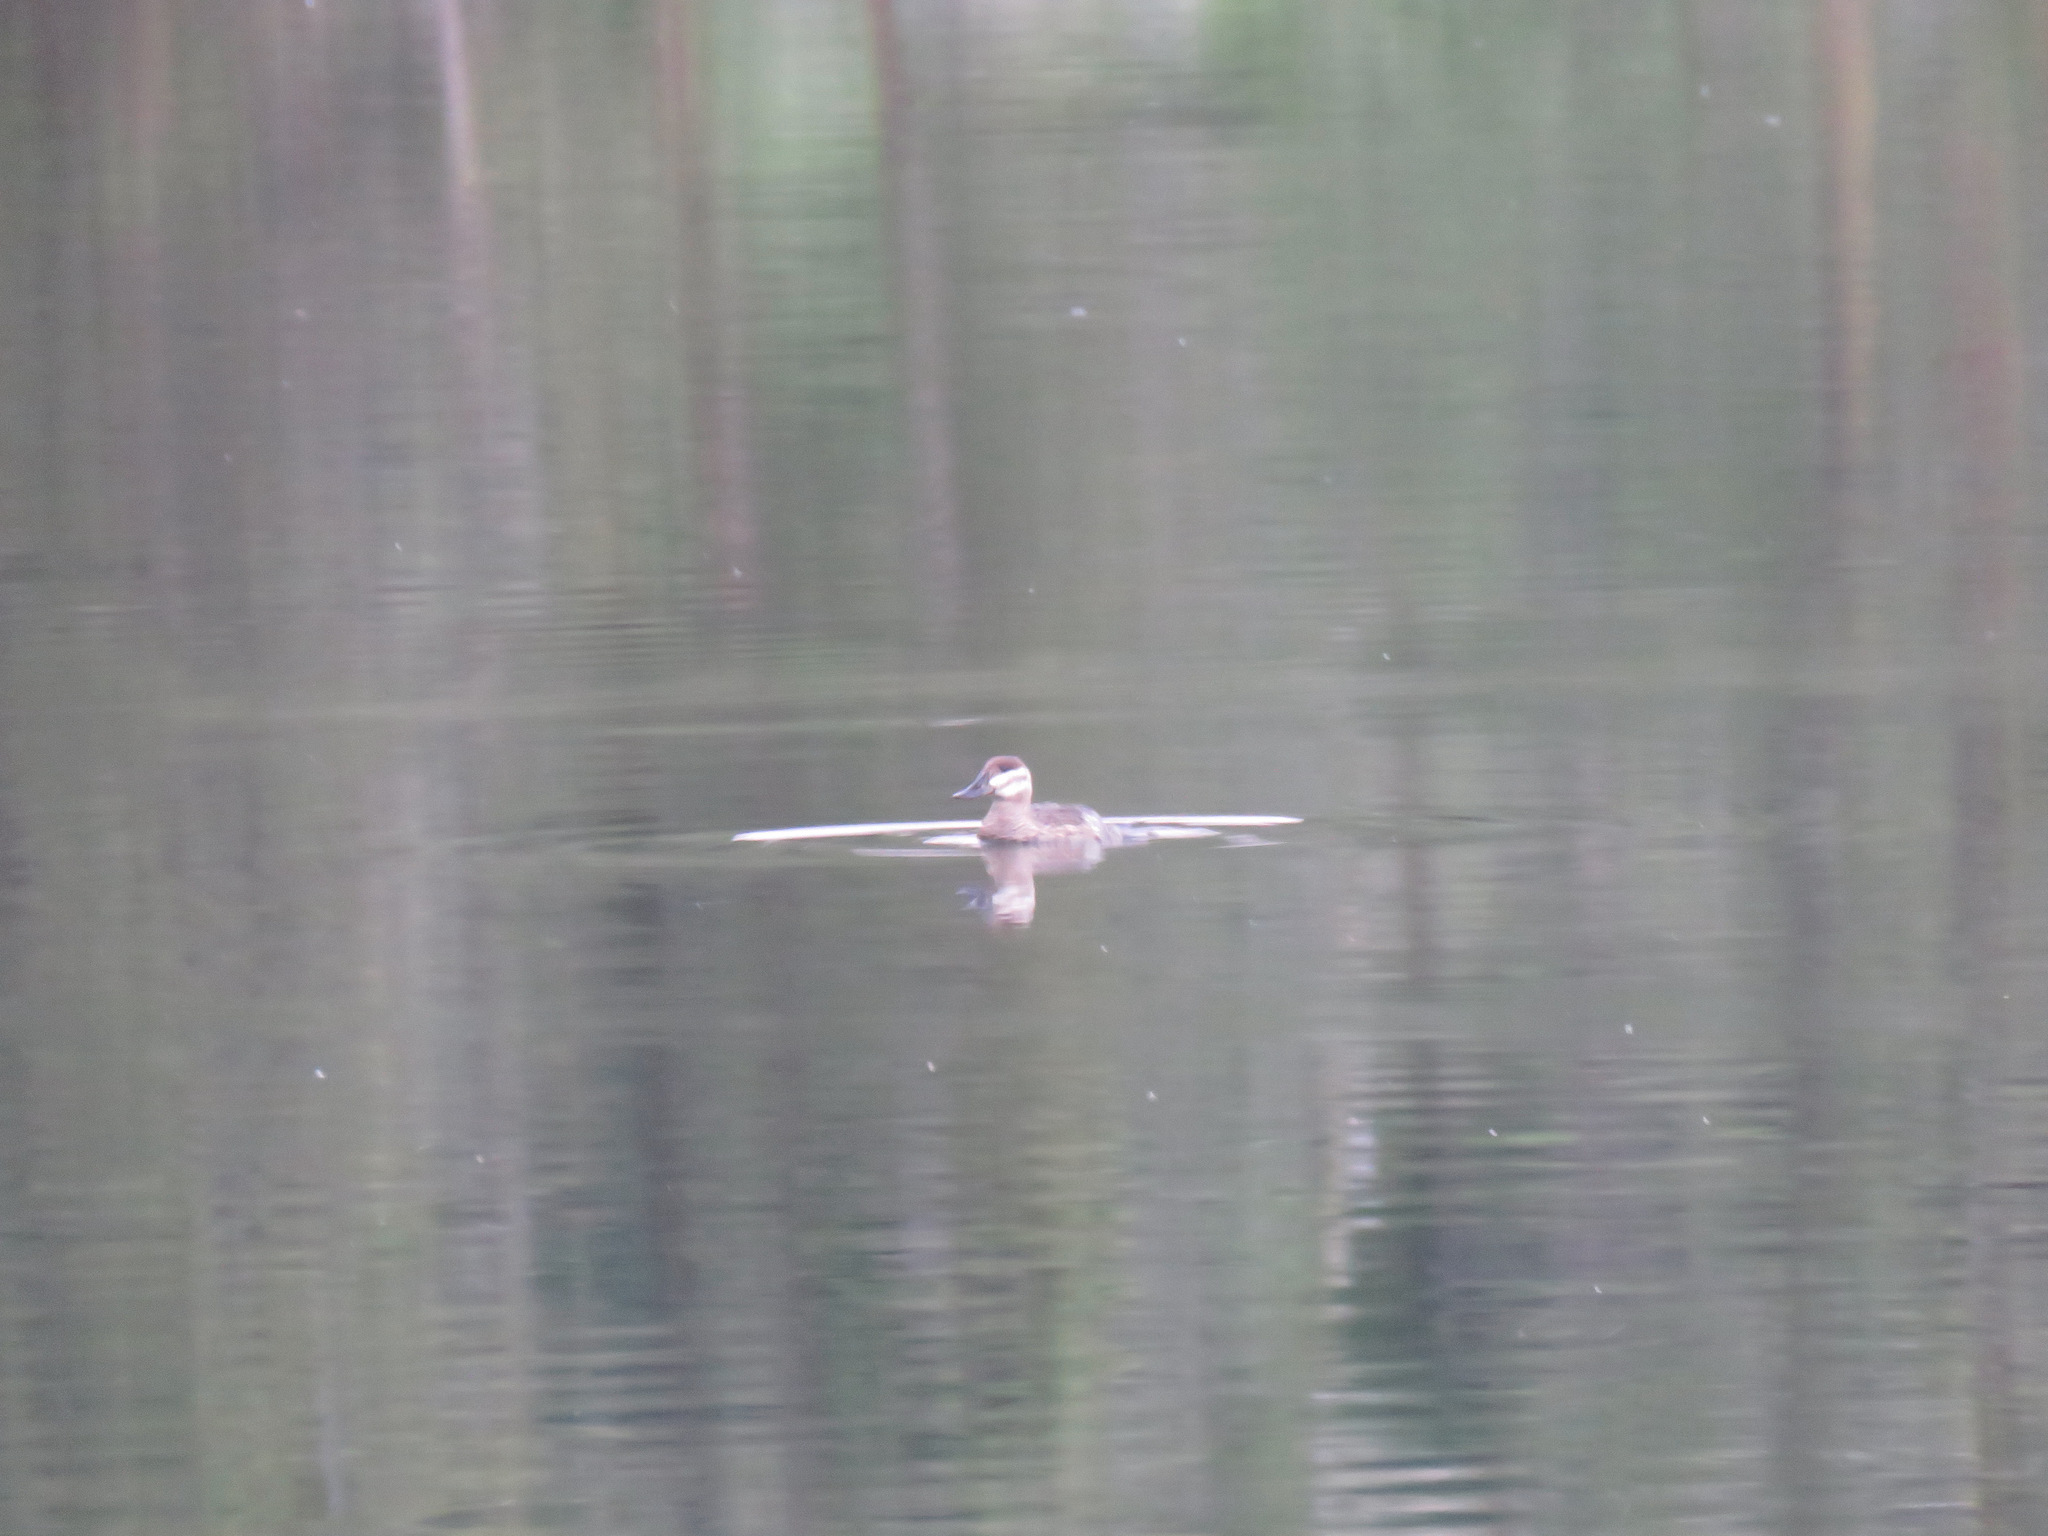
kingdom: Animalia
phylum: Chordata
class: Aves
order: Anseriformes
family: Anatidae
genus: Oxyura
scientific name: Oxyura jamaicensis
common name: Ruddy duck
